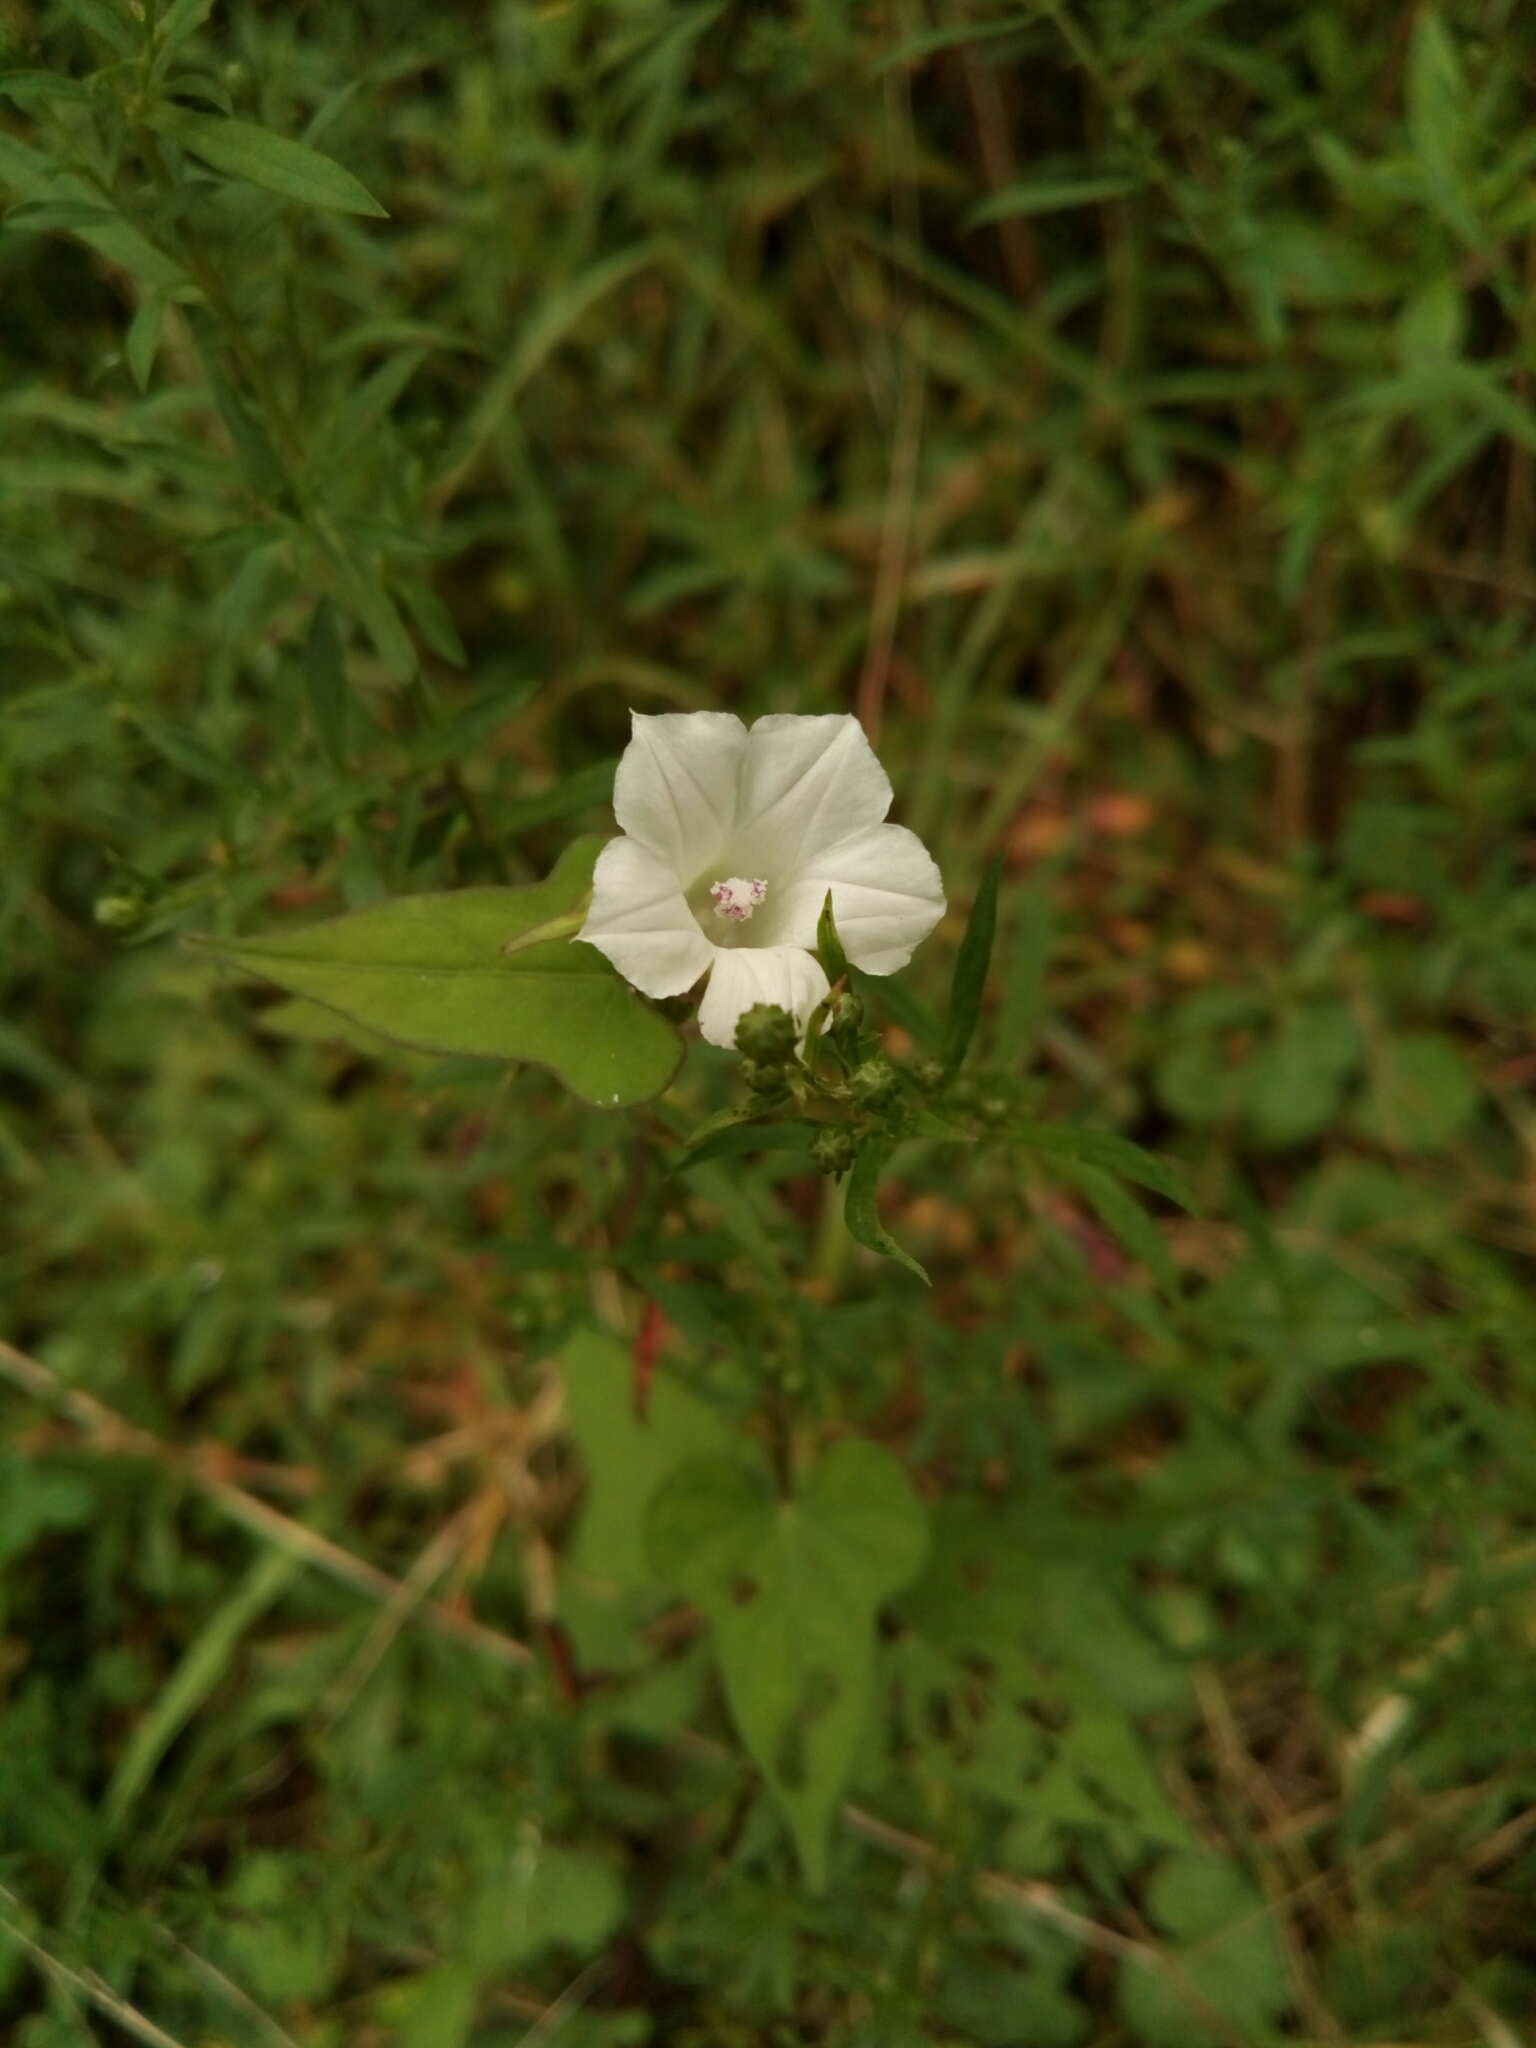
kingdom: Plantae
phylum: Tracheophyta
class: Magnoliopsida
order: Solanales
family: Convolvulaceae
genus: Ipomoea
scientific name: Ipomoea lacunosa
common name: White morning-glory
